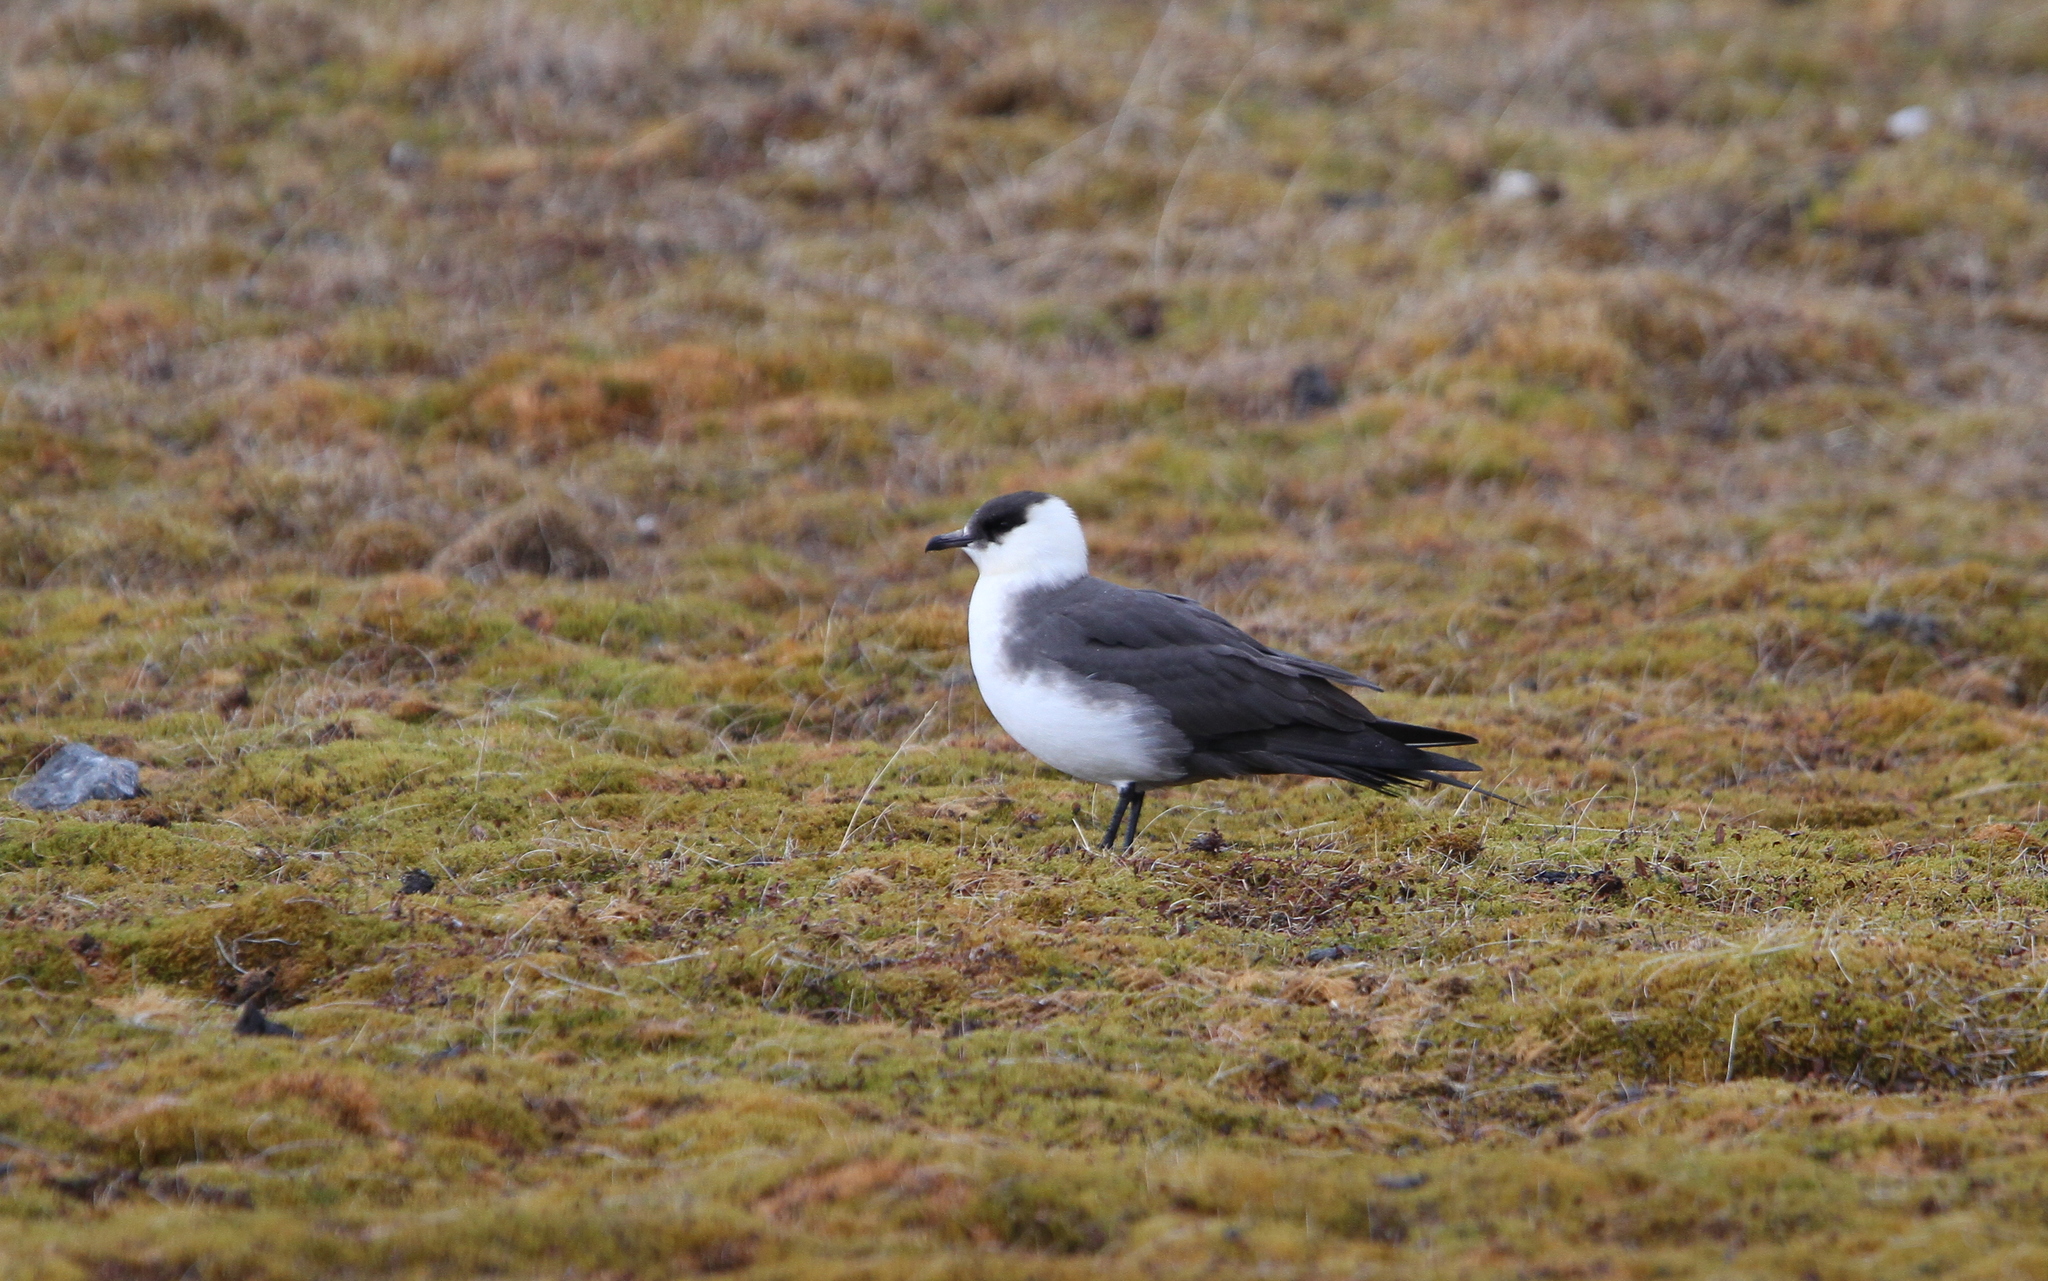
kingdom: Animalia
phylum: Chordata
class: Aves
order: Charadriiformes
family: Stercorariidae
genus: Stercorarius
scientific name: Stercorarius parasiticus
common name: Parasitic jaeger
